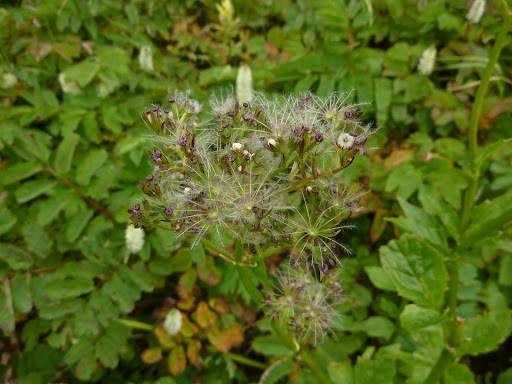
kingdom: Plantae
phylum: Tracheophyta
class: Magnoliopsida
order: Dipsacales
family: Caprifoliaceae
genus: Valeriana
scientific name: Valeriana sitchensis
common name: Pacific valerian
